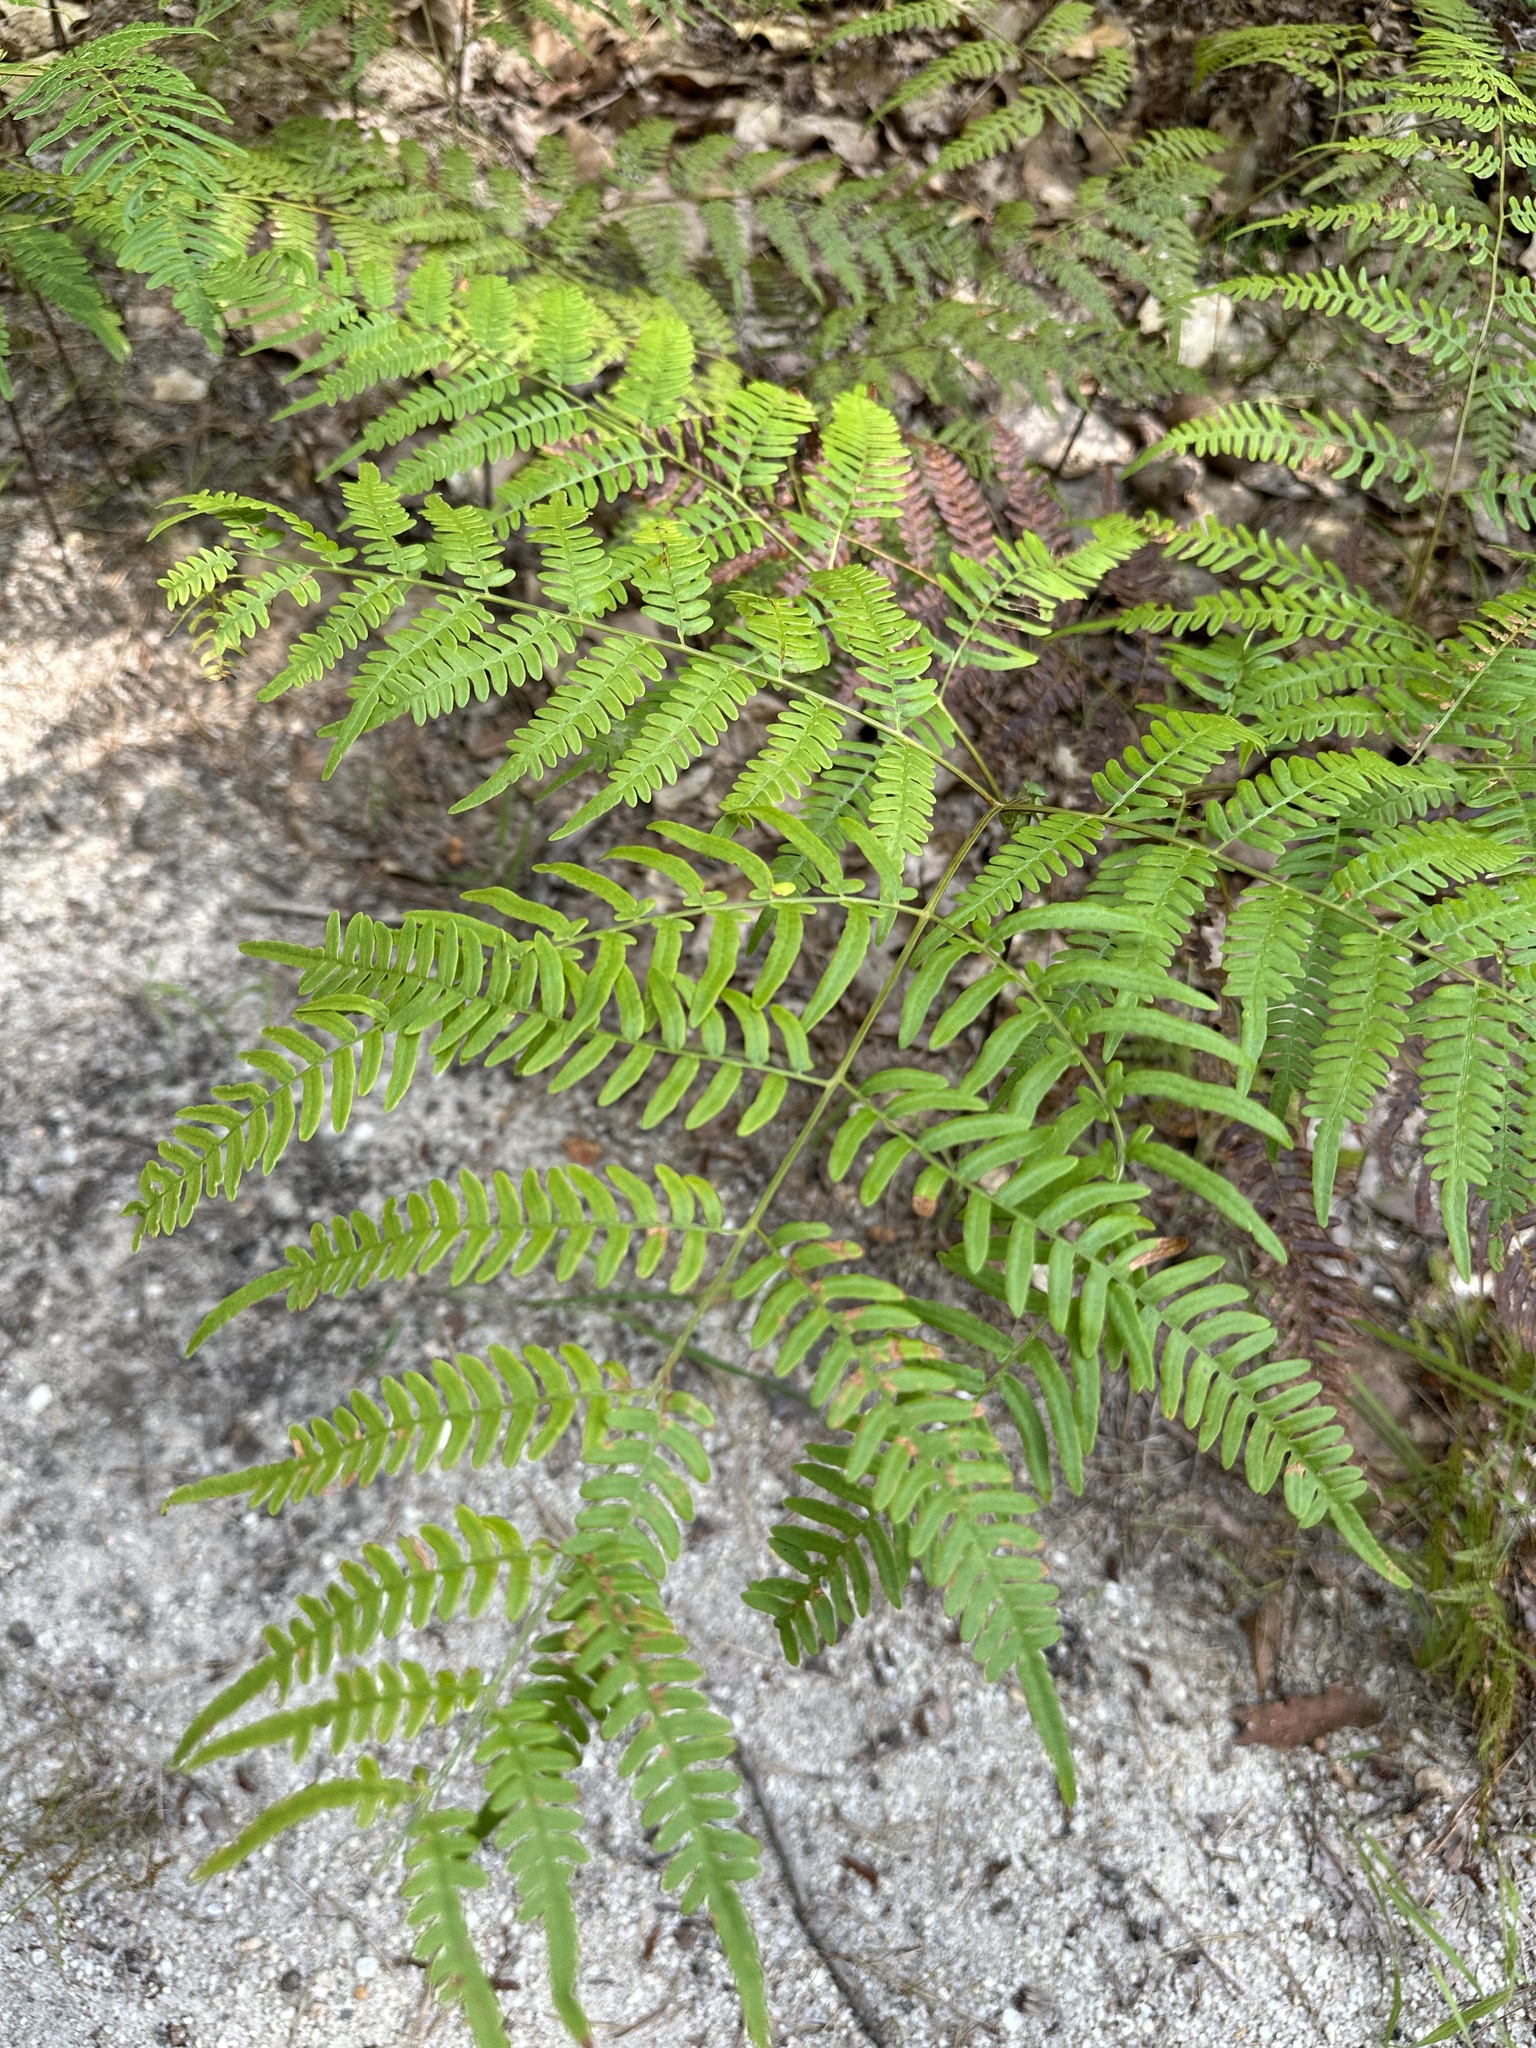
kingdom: Plantae
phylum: Tracheophyta
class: Polypodiopsida
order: Polypodiales
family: Dennstaedtiaceae
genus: Pteridium
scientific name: Pteridium
